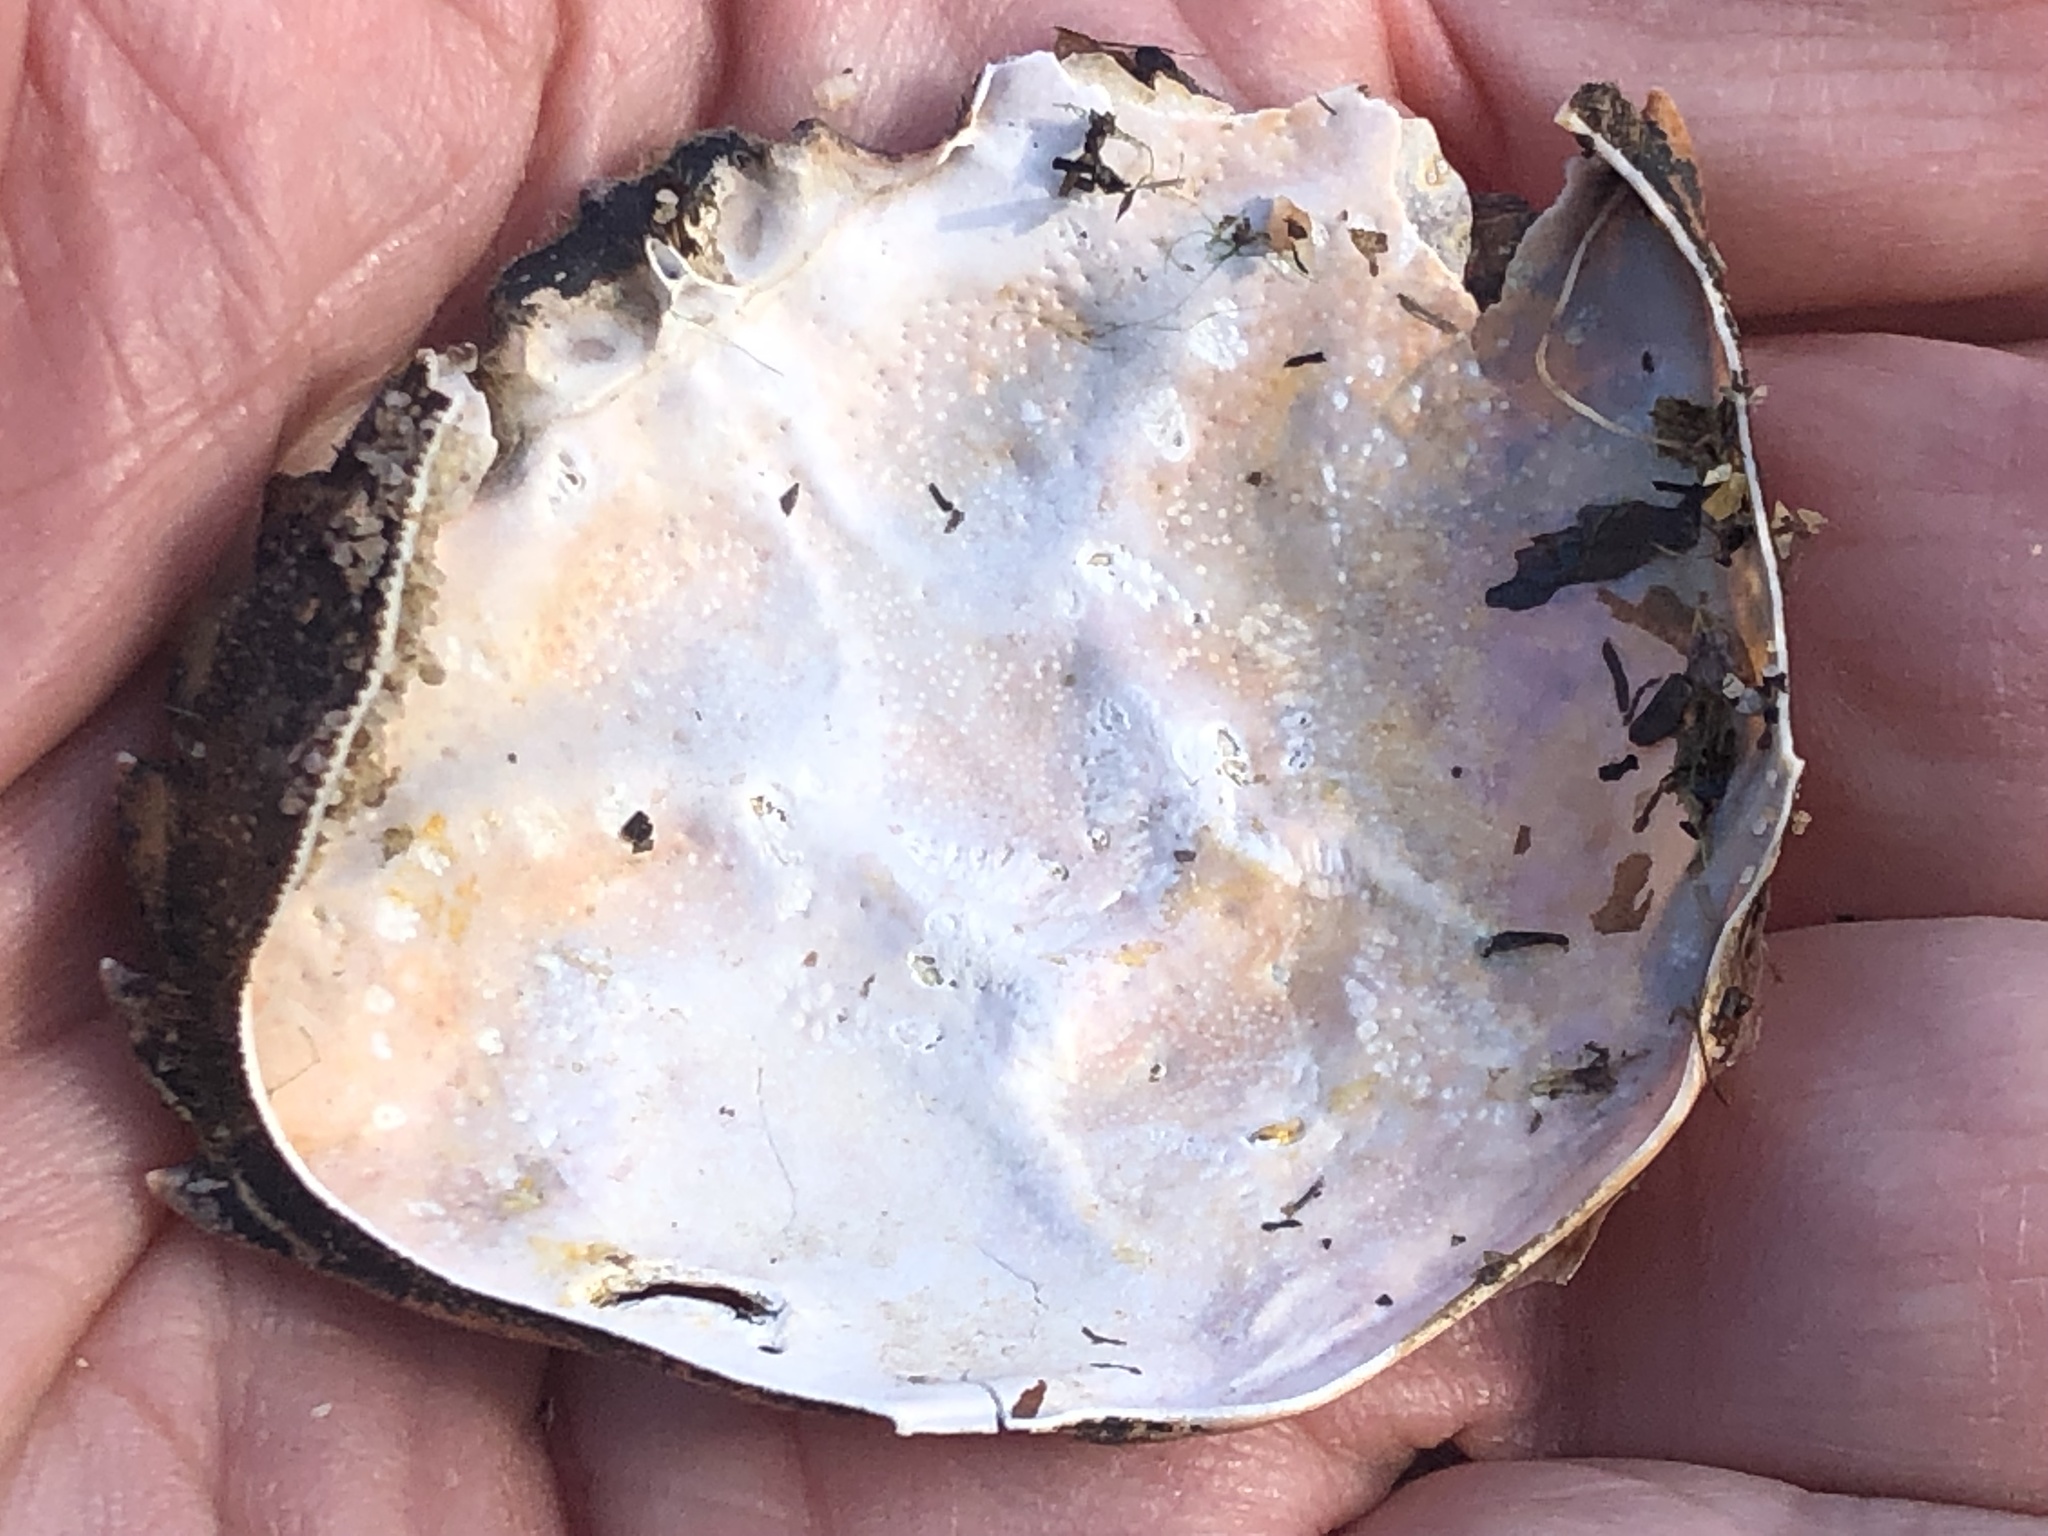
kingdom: Animalia
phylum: Arthropoda
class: Malacostraca
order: Decapoda
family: Carcinidae
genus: Carcinus
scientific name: Carcinus maenas
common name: European green crab
